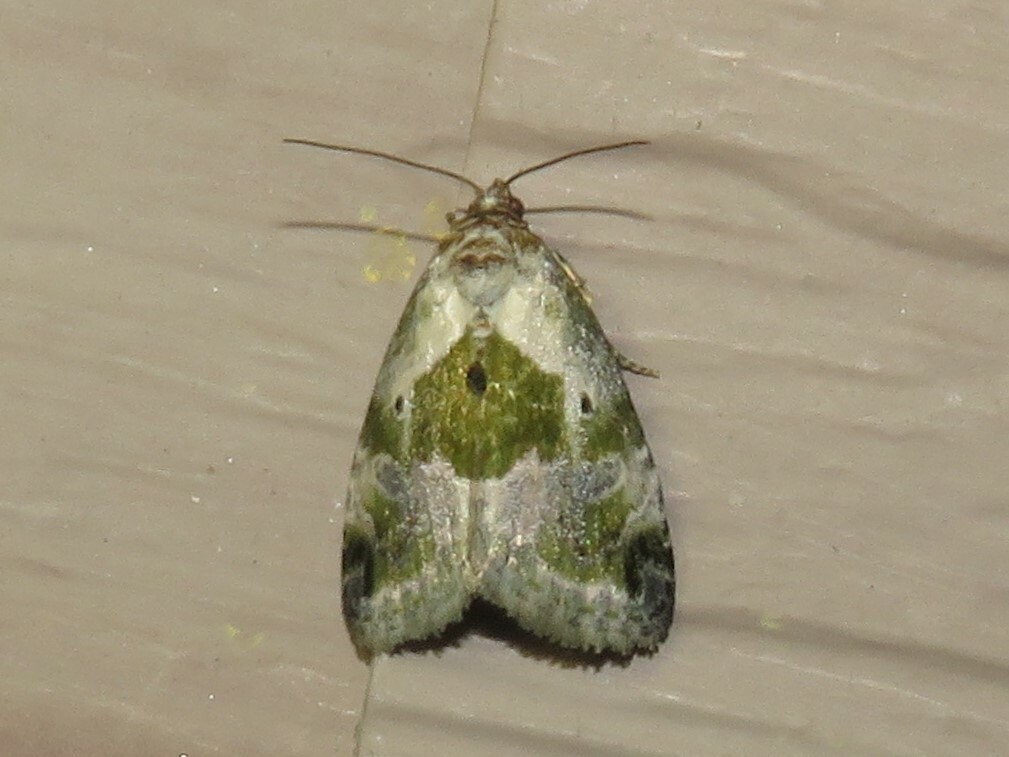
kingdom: Animalia
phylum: Arthropoda
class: Insecta
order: Lepidoptera
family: Noctuidae
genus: Maliattha
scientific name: Maliattha synochitis
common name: Black-dotted glyph
